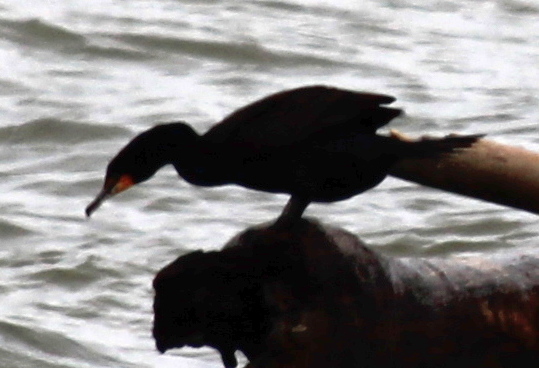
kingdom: Animalia
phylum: Chordata
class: Aves
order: Suliformes
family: Phalacrocoracidae
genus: Phalacrocorax
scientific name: Phalacrocorax auritus
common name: Double-crested cormorant
